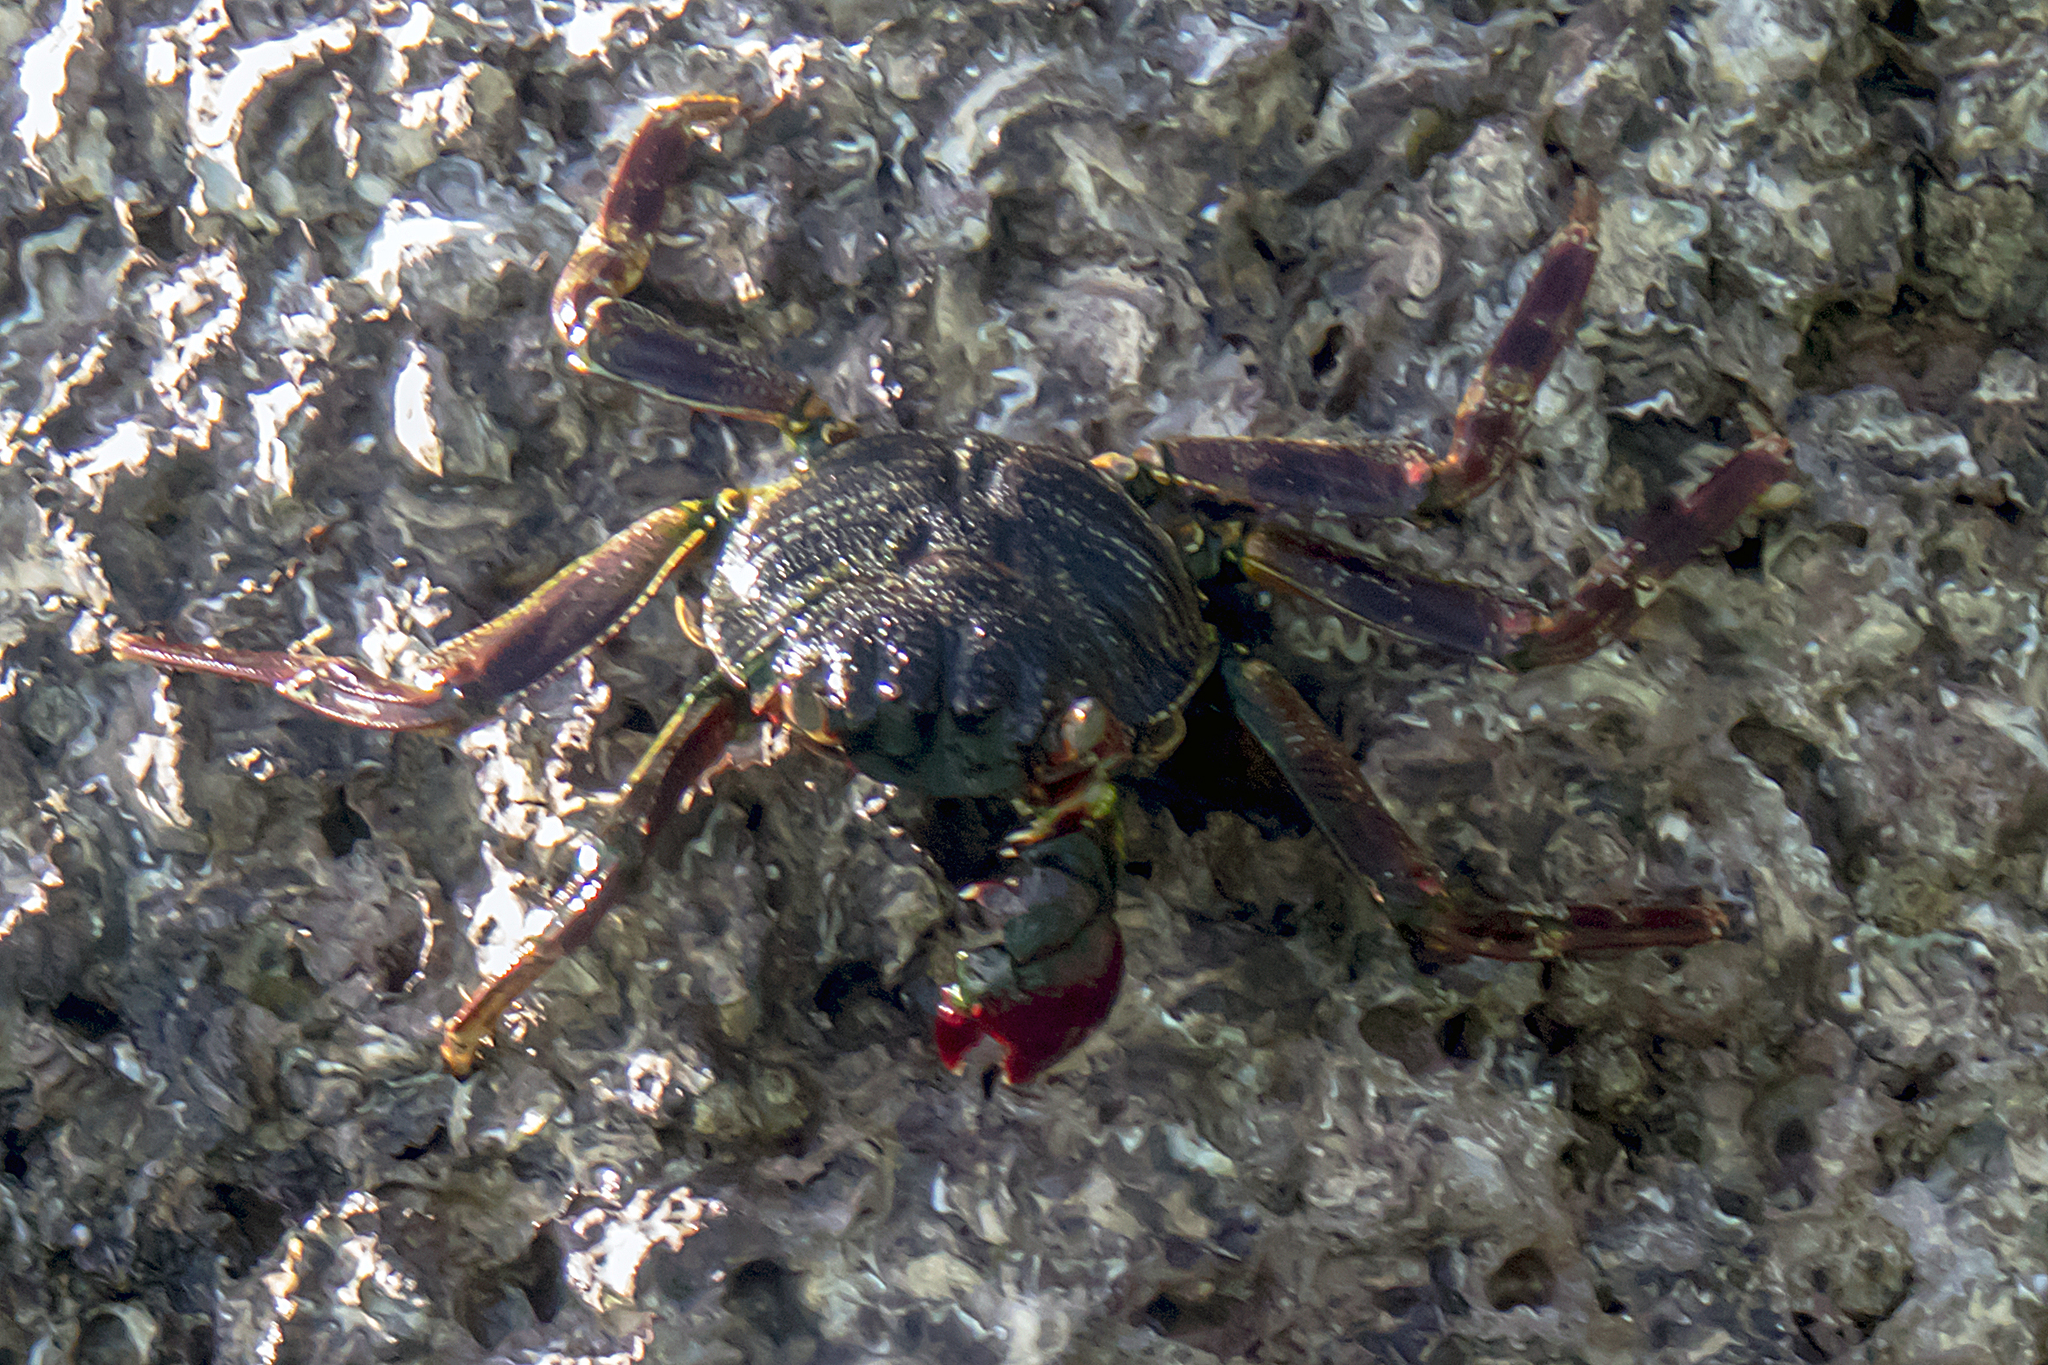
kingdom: Animalia
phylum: Arthropoda
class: Malacostraca
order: Decapoda
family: Grapsidae
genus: Grapsus
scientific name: Grapsus tenuicrustatus
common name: Natal lightfoot crab
